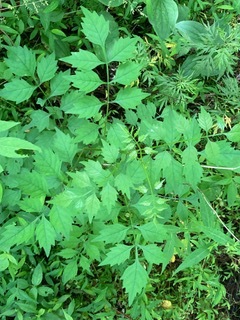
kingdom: Plantae
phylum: Tracheophyta
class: Magnoliopsida
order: Lamiales
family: Bignoniaceae
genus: Campsis
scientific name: Campsis radicans
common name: Trumpet-creeper
